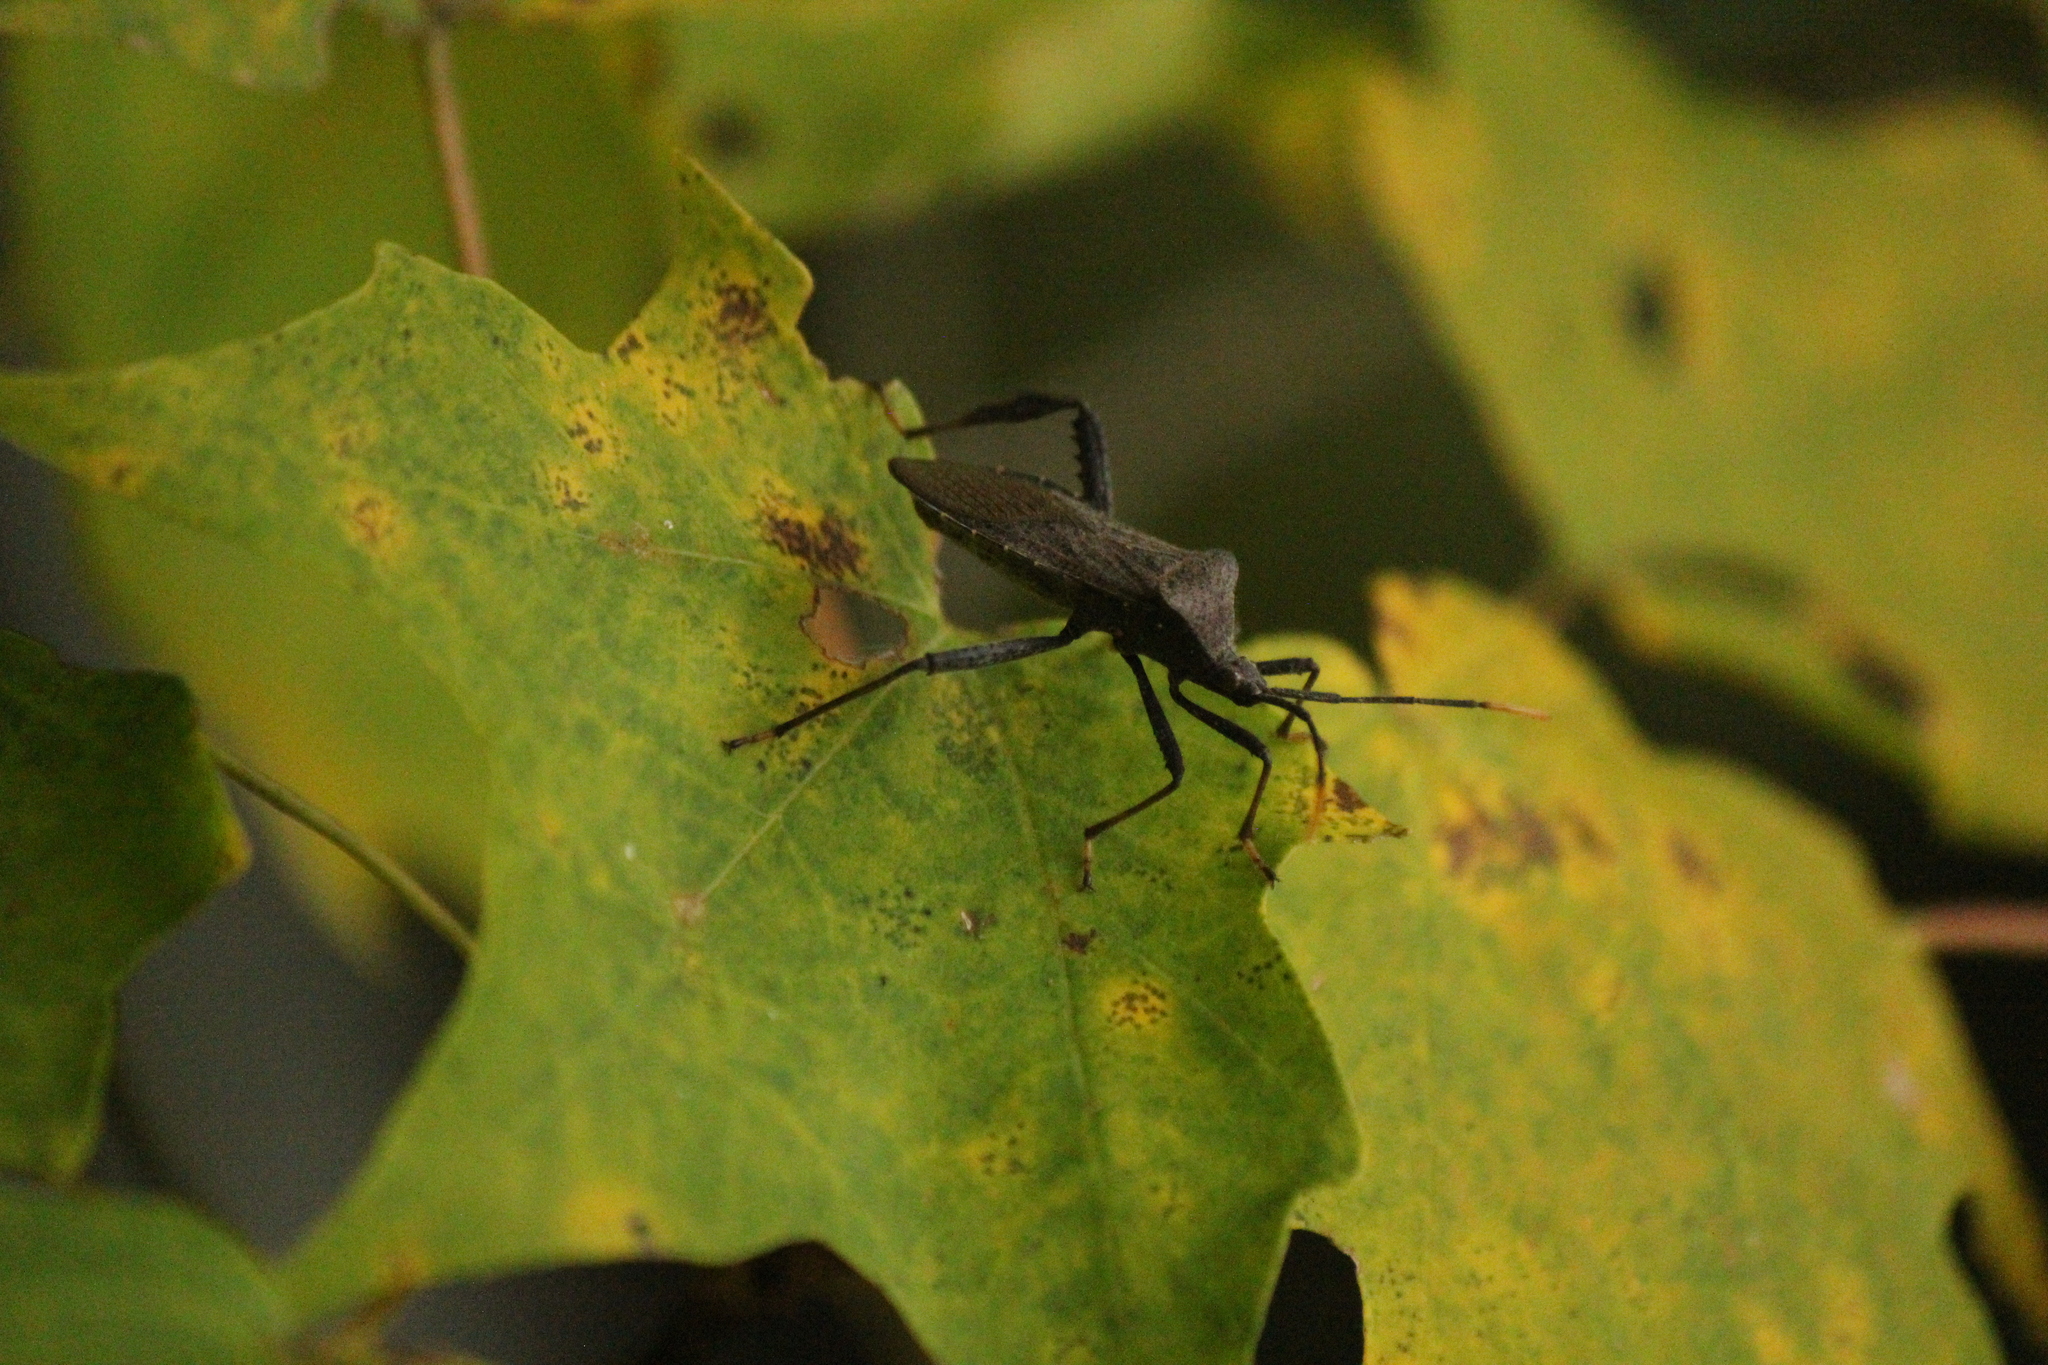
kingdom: Animalia
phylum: Arthropoda
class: Insecta
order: Hemiptera
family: Coreidae
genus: Acanthocephala
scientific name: Acanthocephala terminalis
